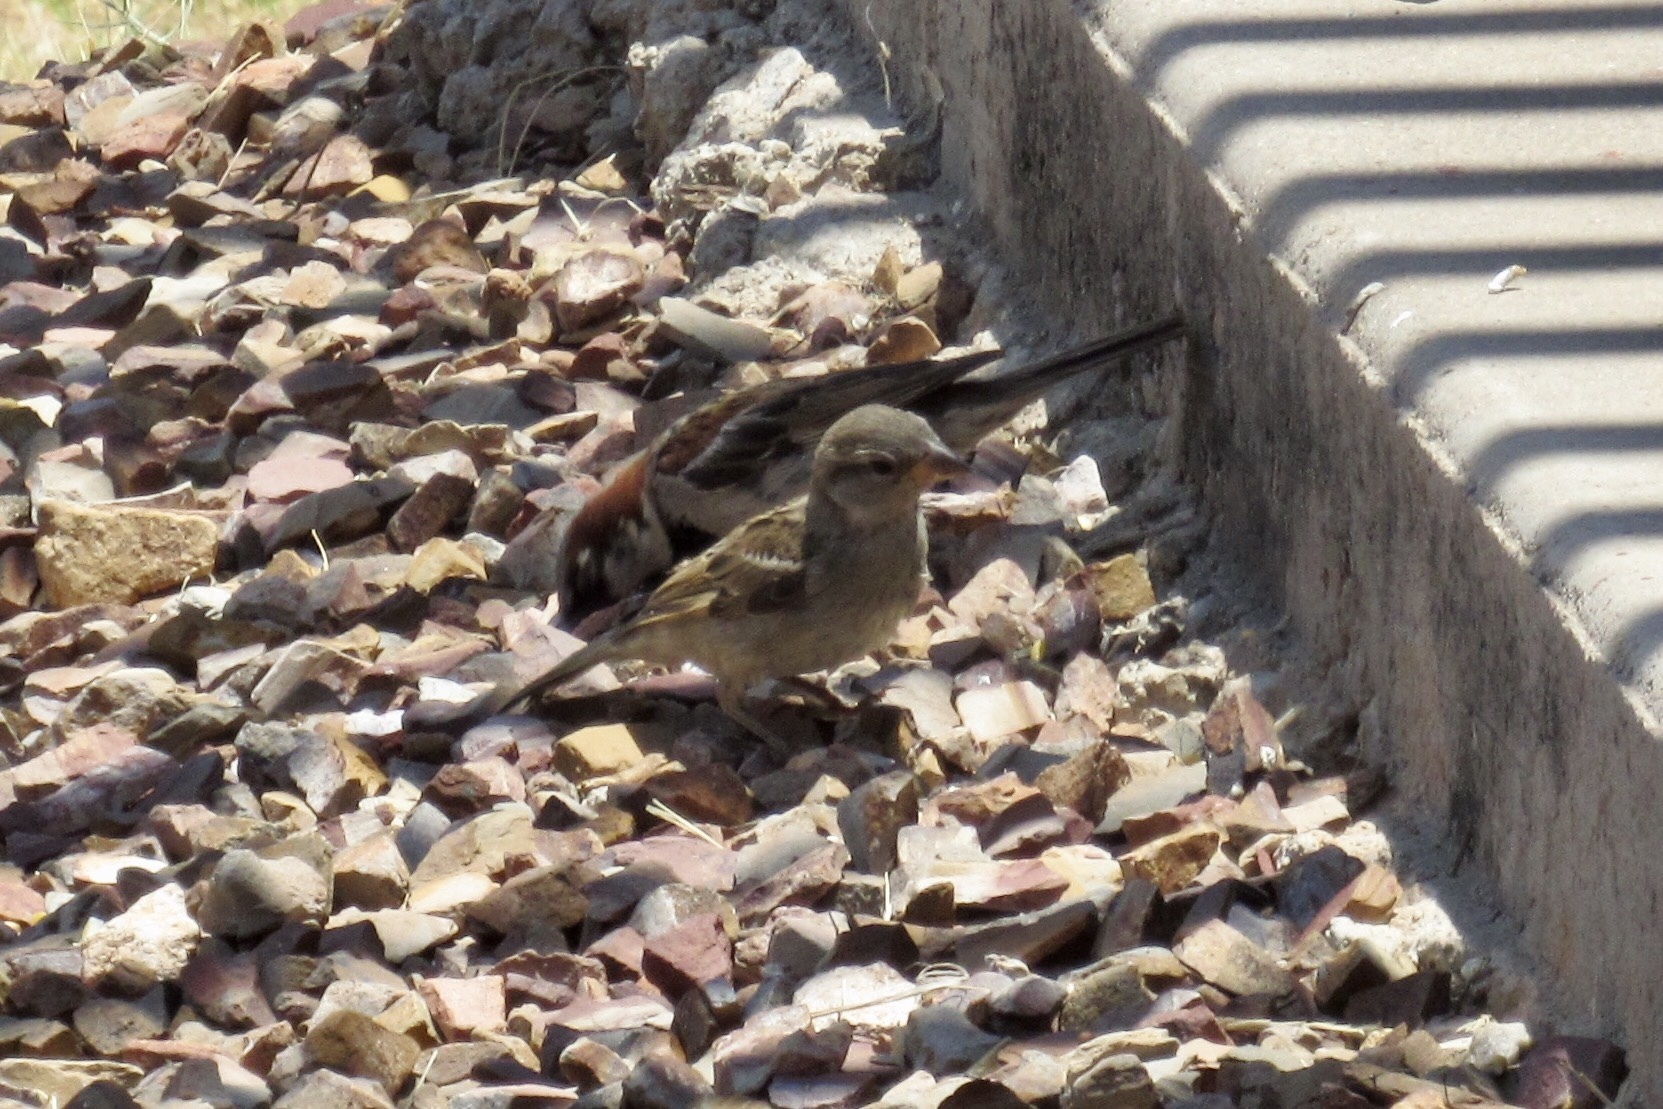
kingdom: Animalia
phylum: Chordata
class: Aves
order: Passeriformes
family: Passeridae
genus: Passer
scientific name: Passer domesticus
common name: House sparrow
